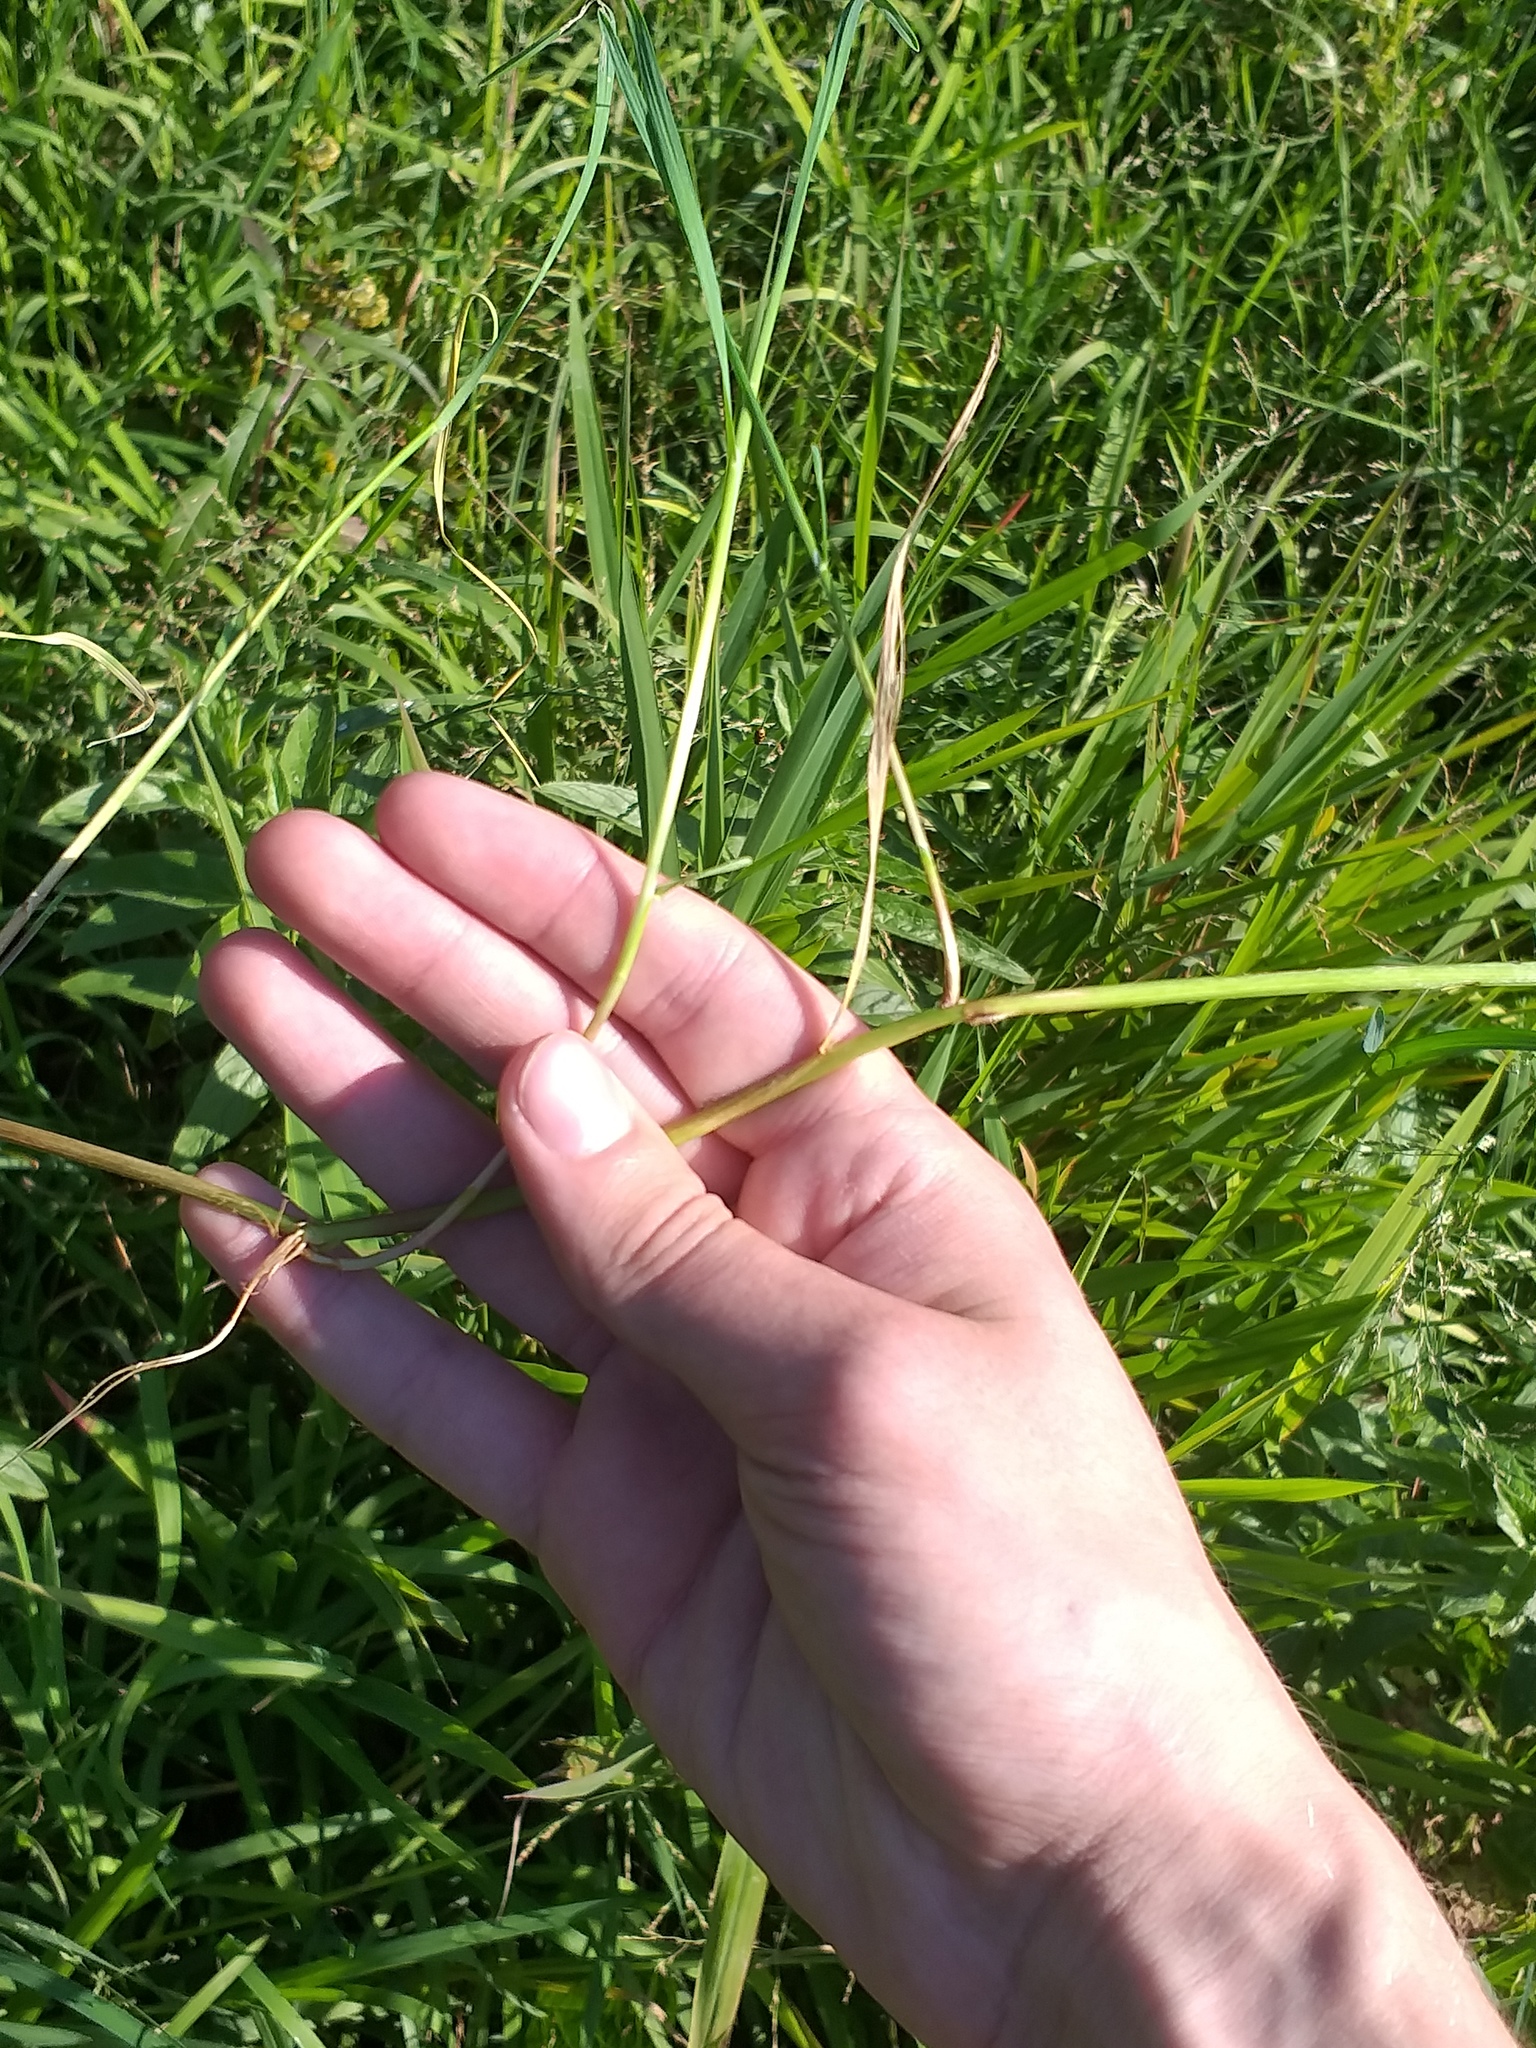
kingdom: Plantae
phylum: Tracheophyta
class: Liliopsida
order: Poales
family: Poaceae
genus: Catabrosa
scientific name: Catabrosa aquatica
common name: Whorl-grass
